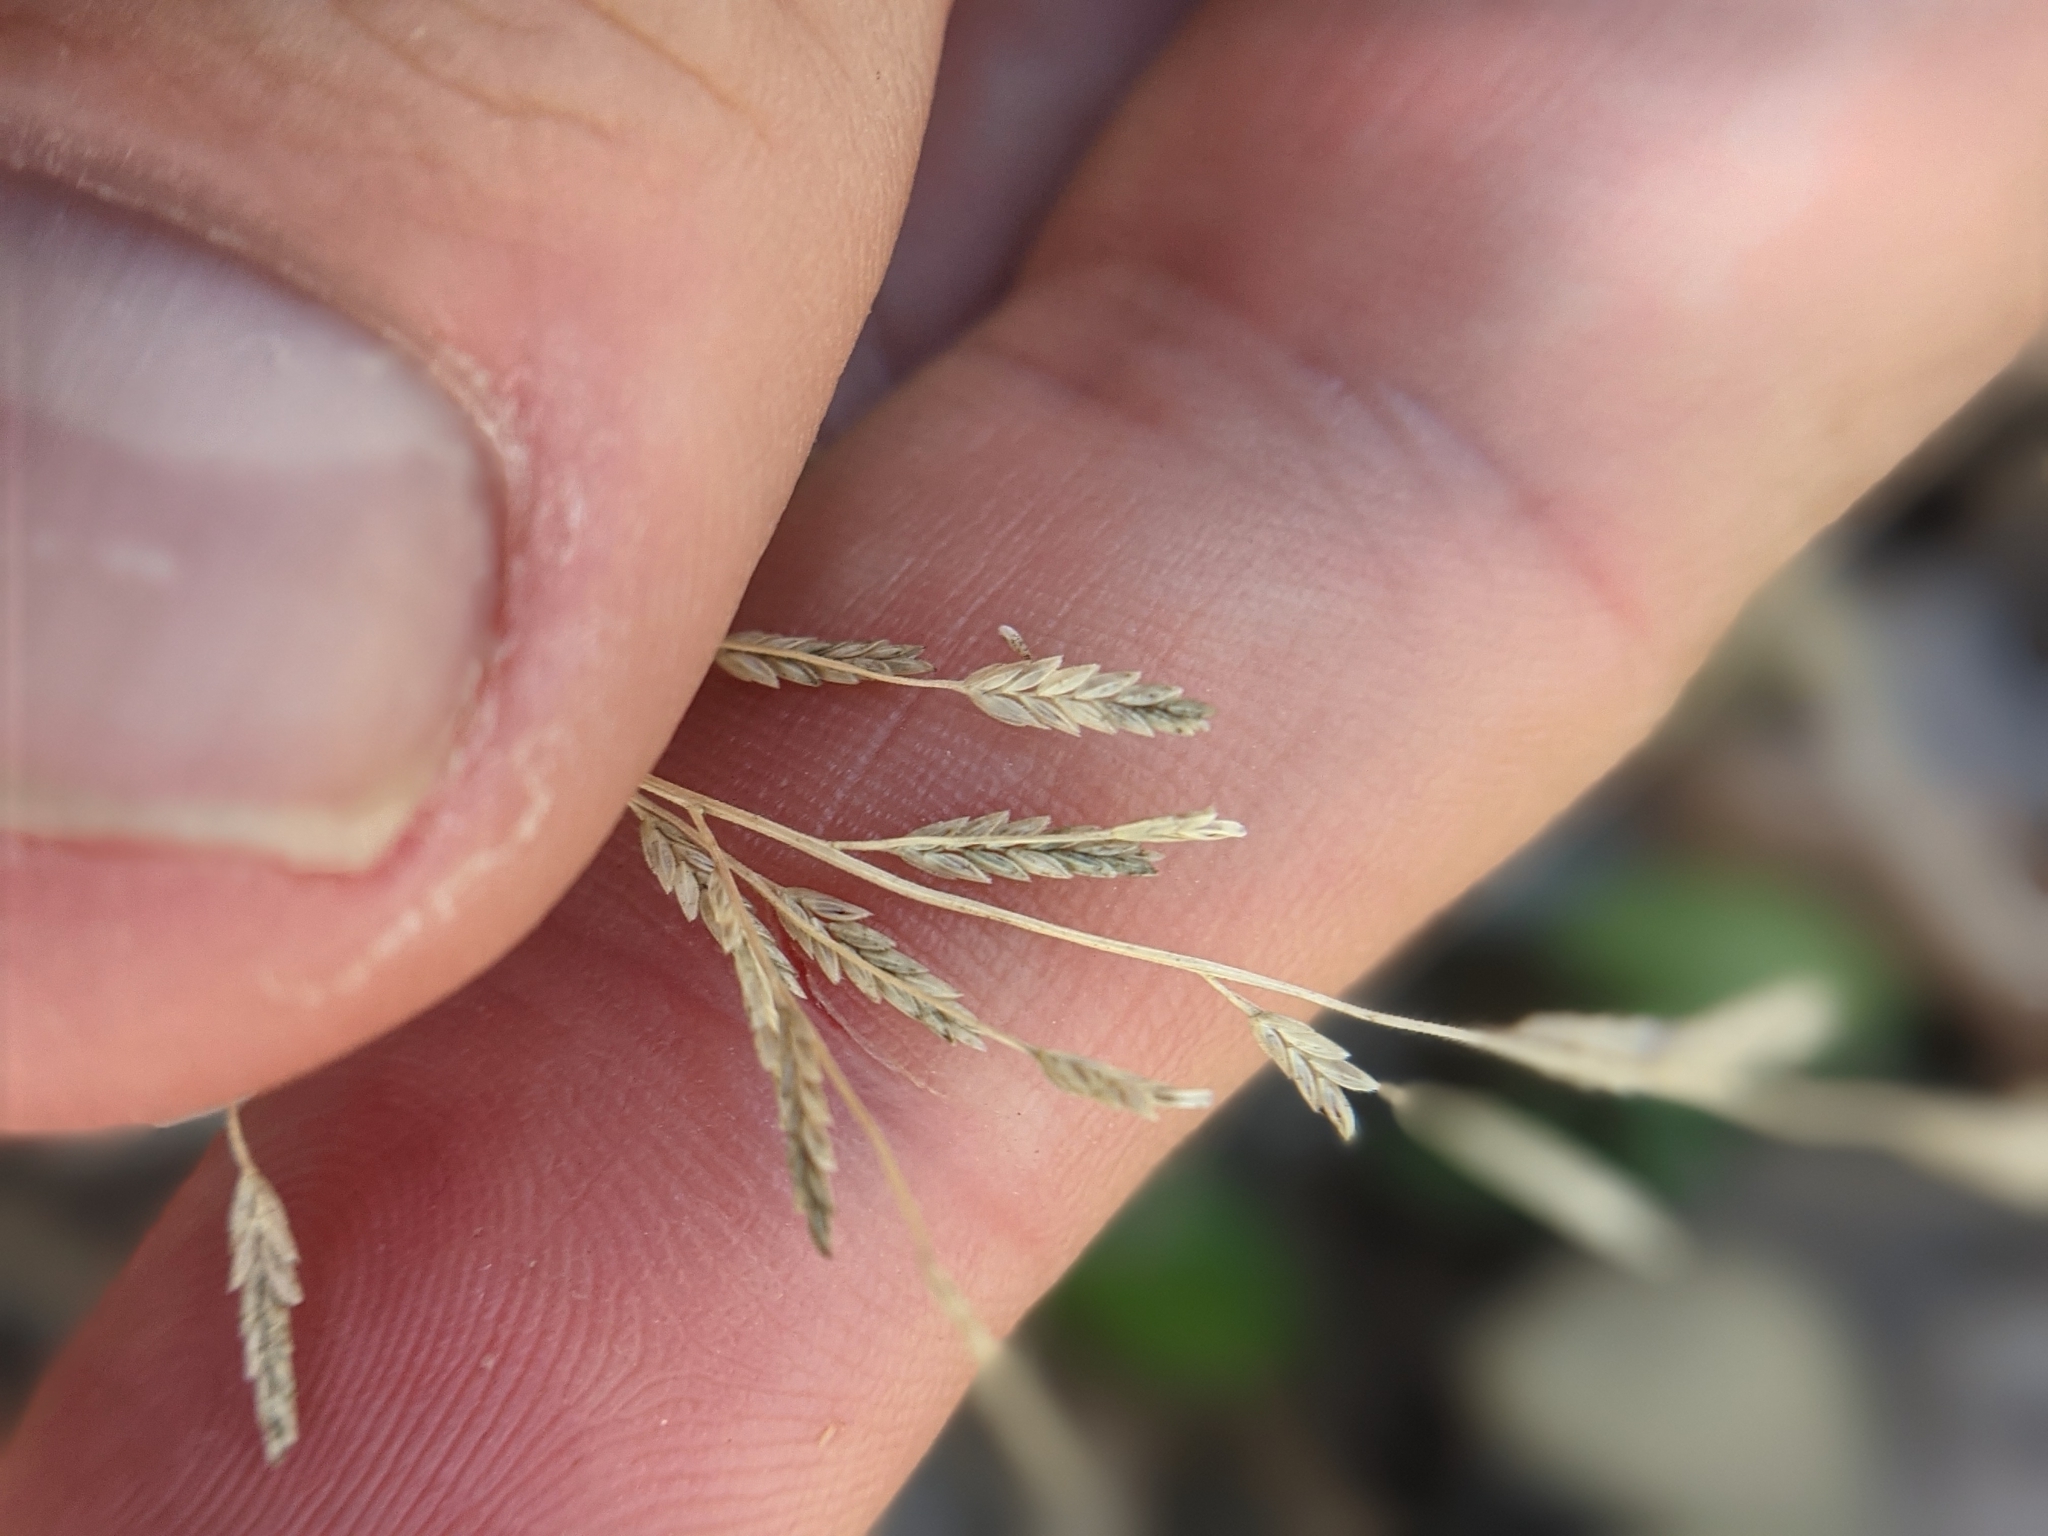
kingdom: Plantae
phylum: Tracheophyta
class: Liliopsida
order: Poales
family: Poaceae
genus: Eragrostis
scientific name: Eragrostis curtipedicellata
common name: Gummy love grass
